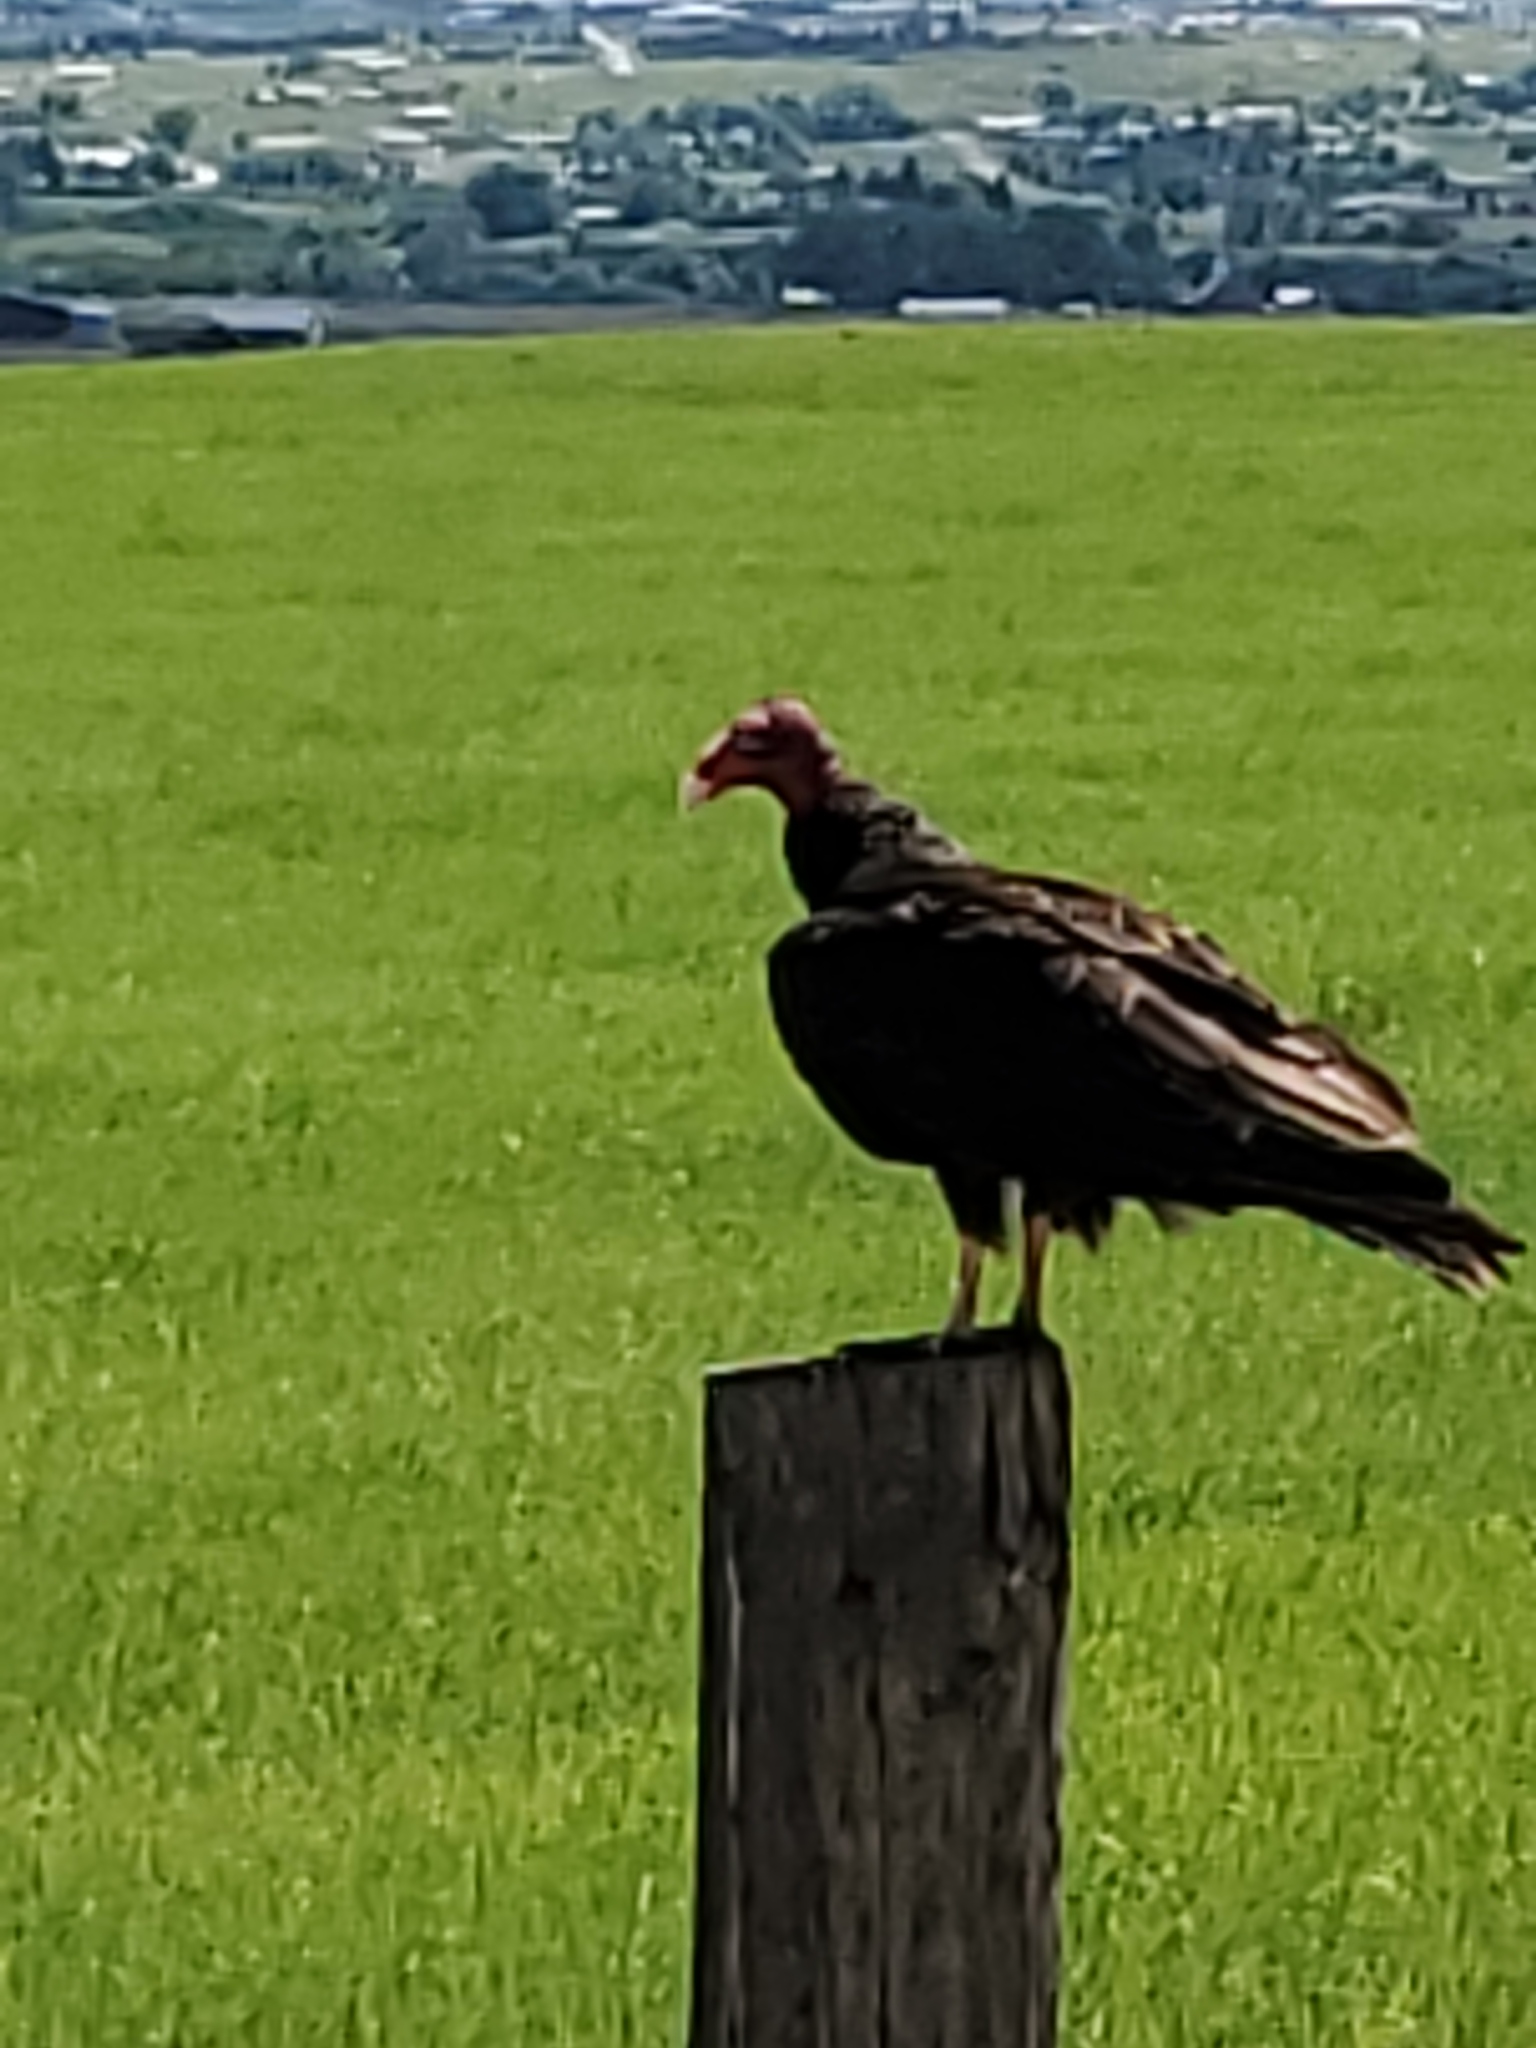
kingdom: Animalia
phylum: Chordata
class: Aves
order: Accipitriformes
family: Cathartidae
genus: Cathartes
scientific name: Cathartes aura
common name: Turkey vulture
